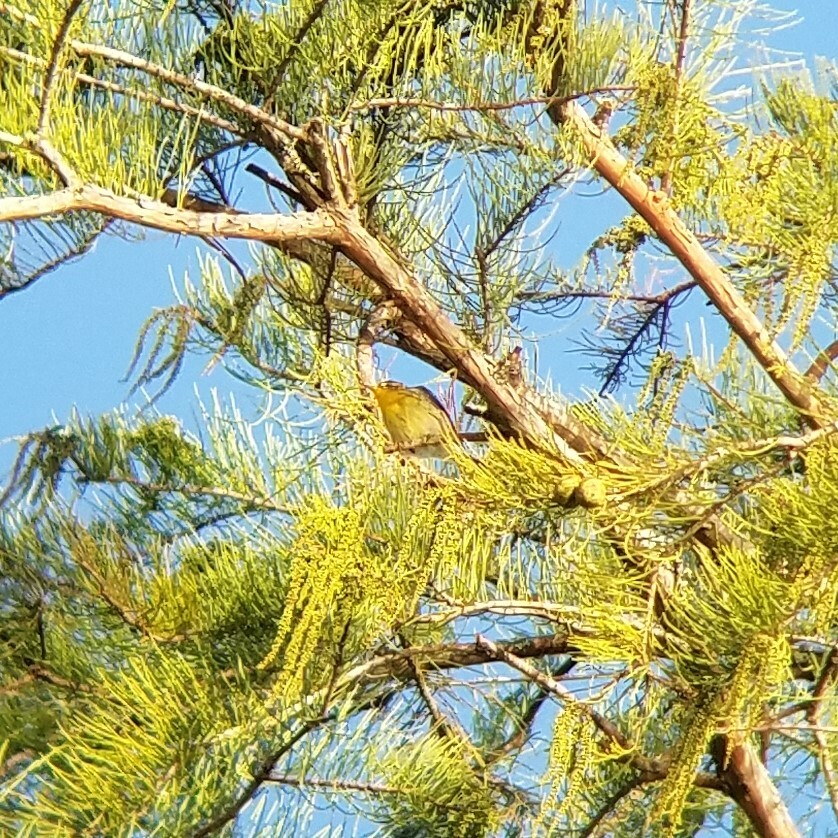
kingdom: Animalia
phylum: Chordata
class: Aves
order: Passeriformes
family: Parulidae
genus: Setophaga
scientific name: Setophaga fusca
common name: Blackburnian warbler
